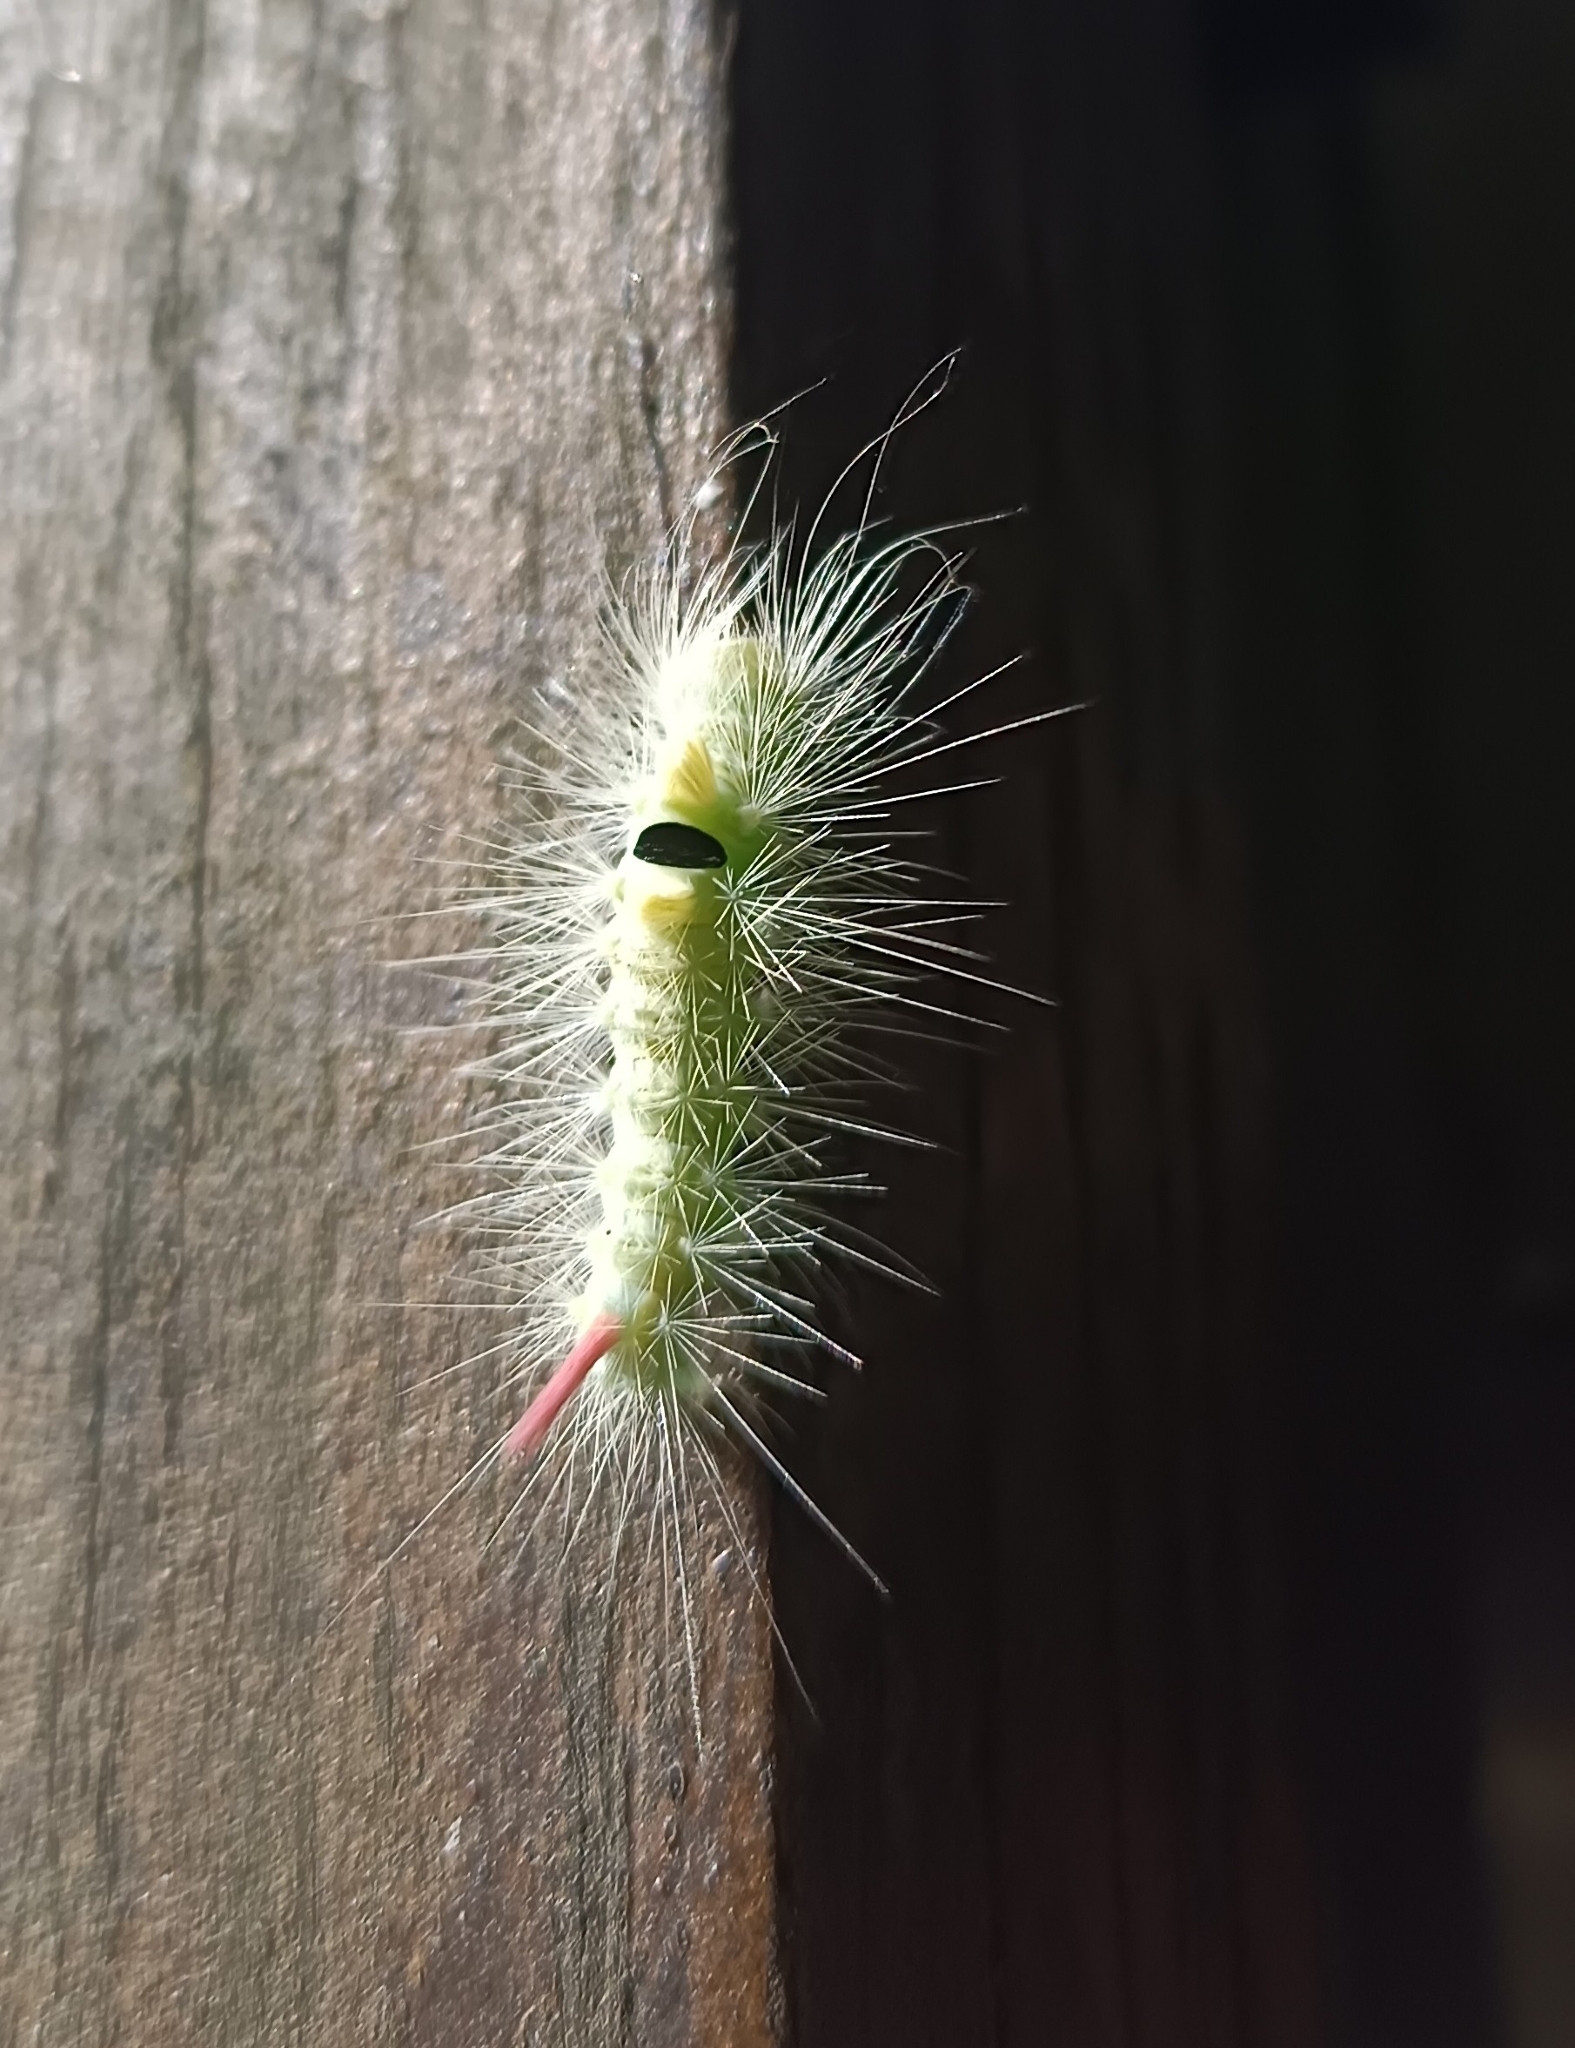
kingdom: Animalia
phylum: Arthropoda
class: Insecta
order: Lepidoptera
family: Erebidae
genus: Calliteara
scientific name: Calliteara pudibunda
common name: Pale tussock
